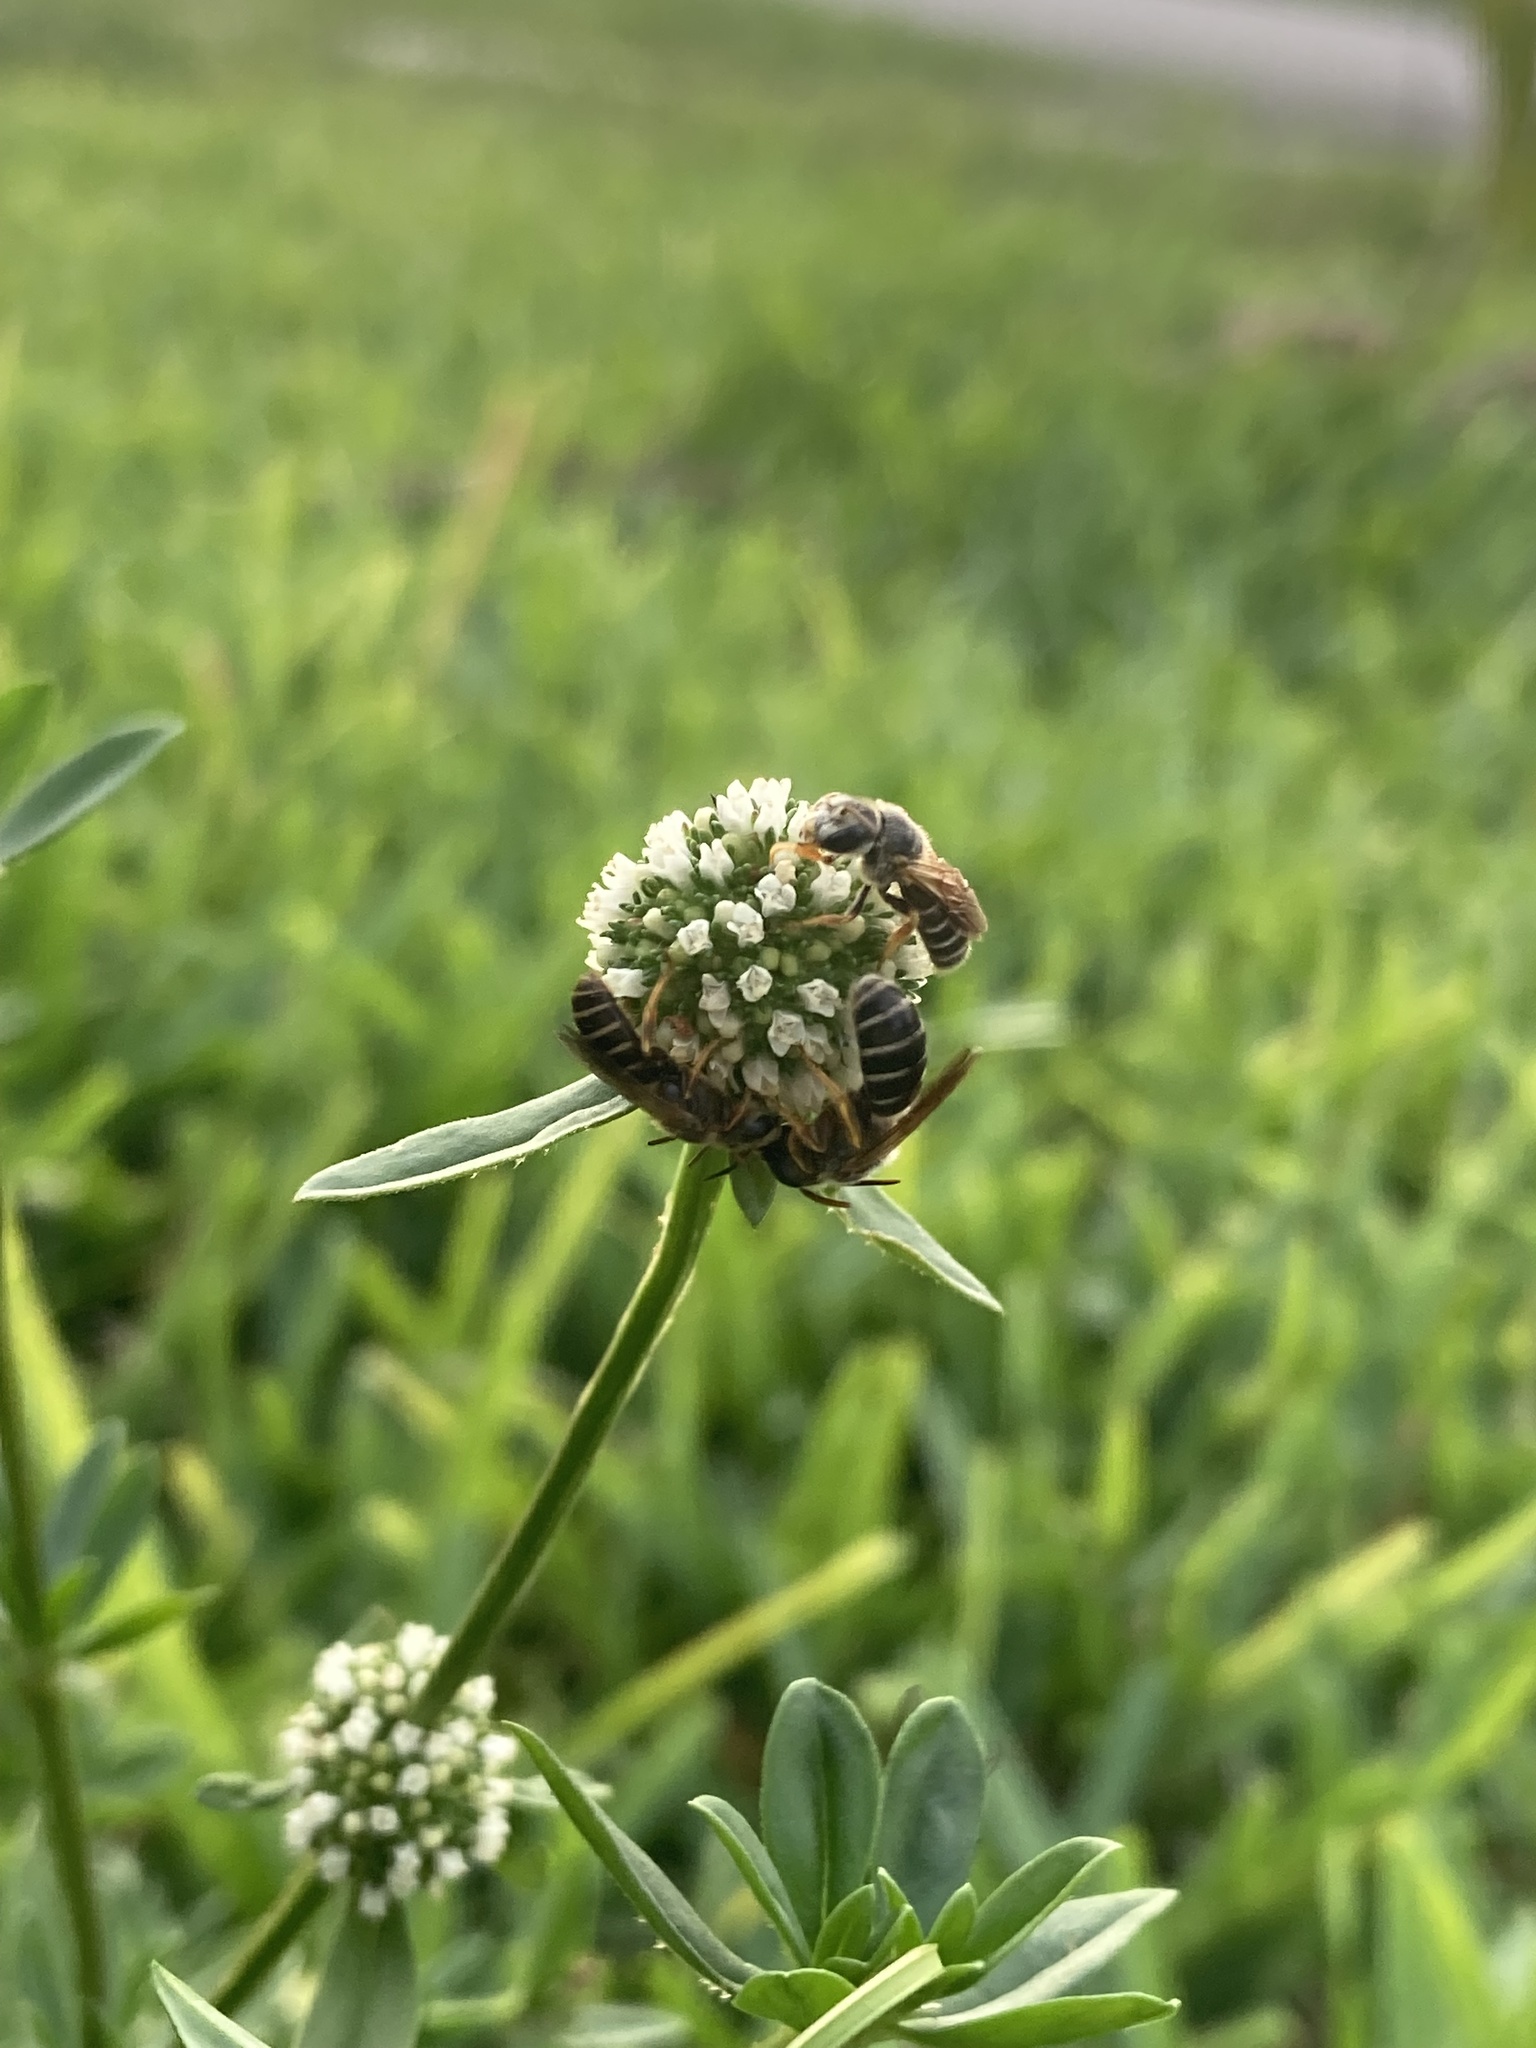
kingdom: Animalia
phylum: Arthropoda
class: Insecta
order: Hymenoptera
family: Halictidae
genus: Halictus
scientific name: Halictus poeyi
